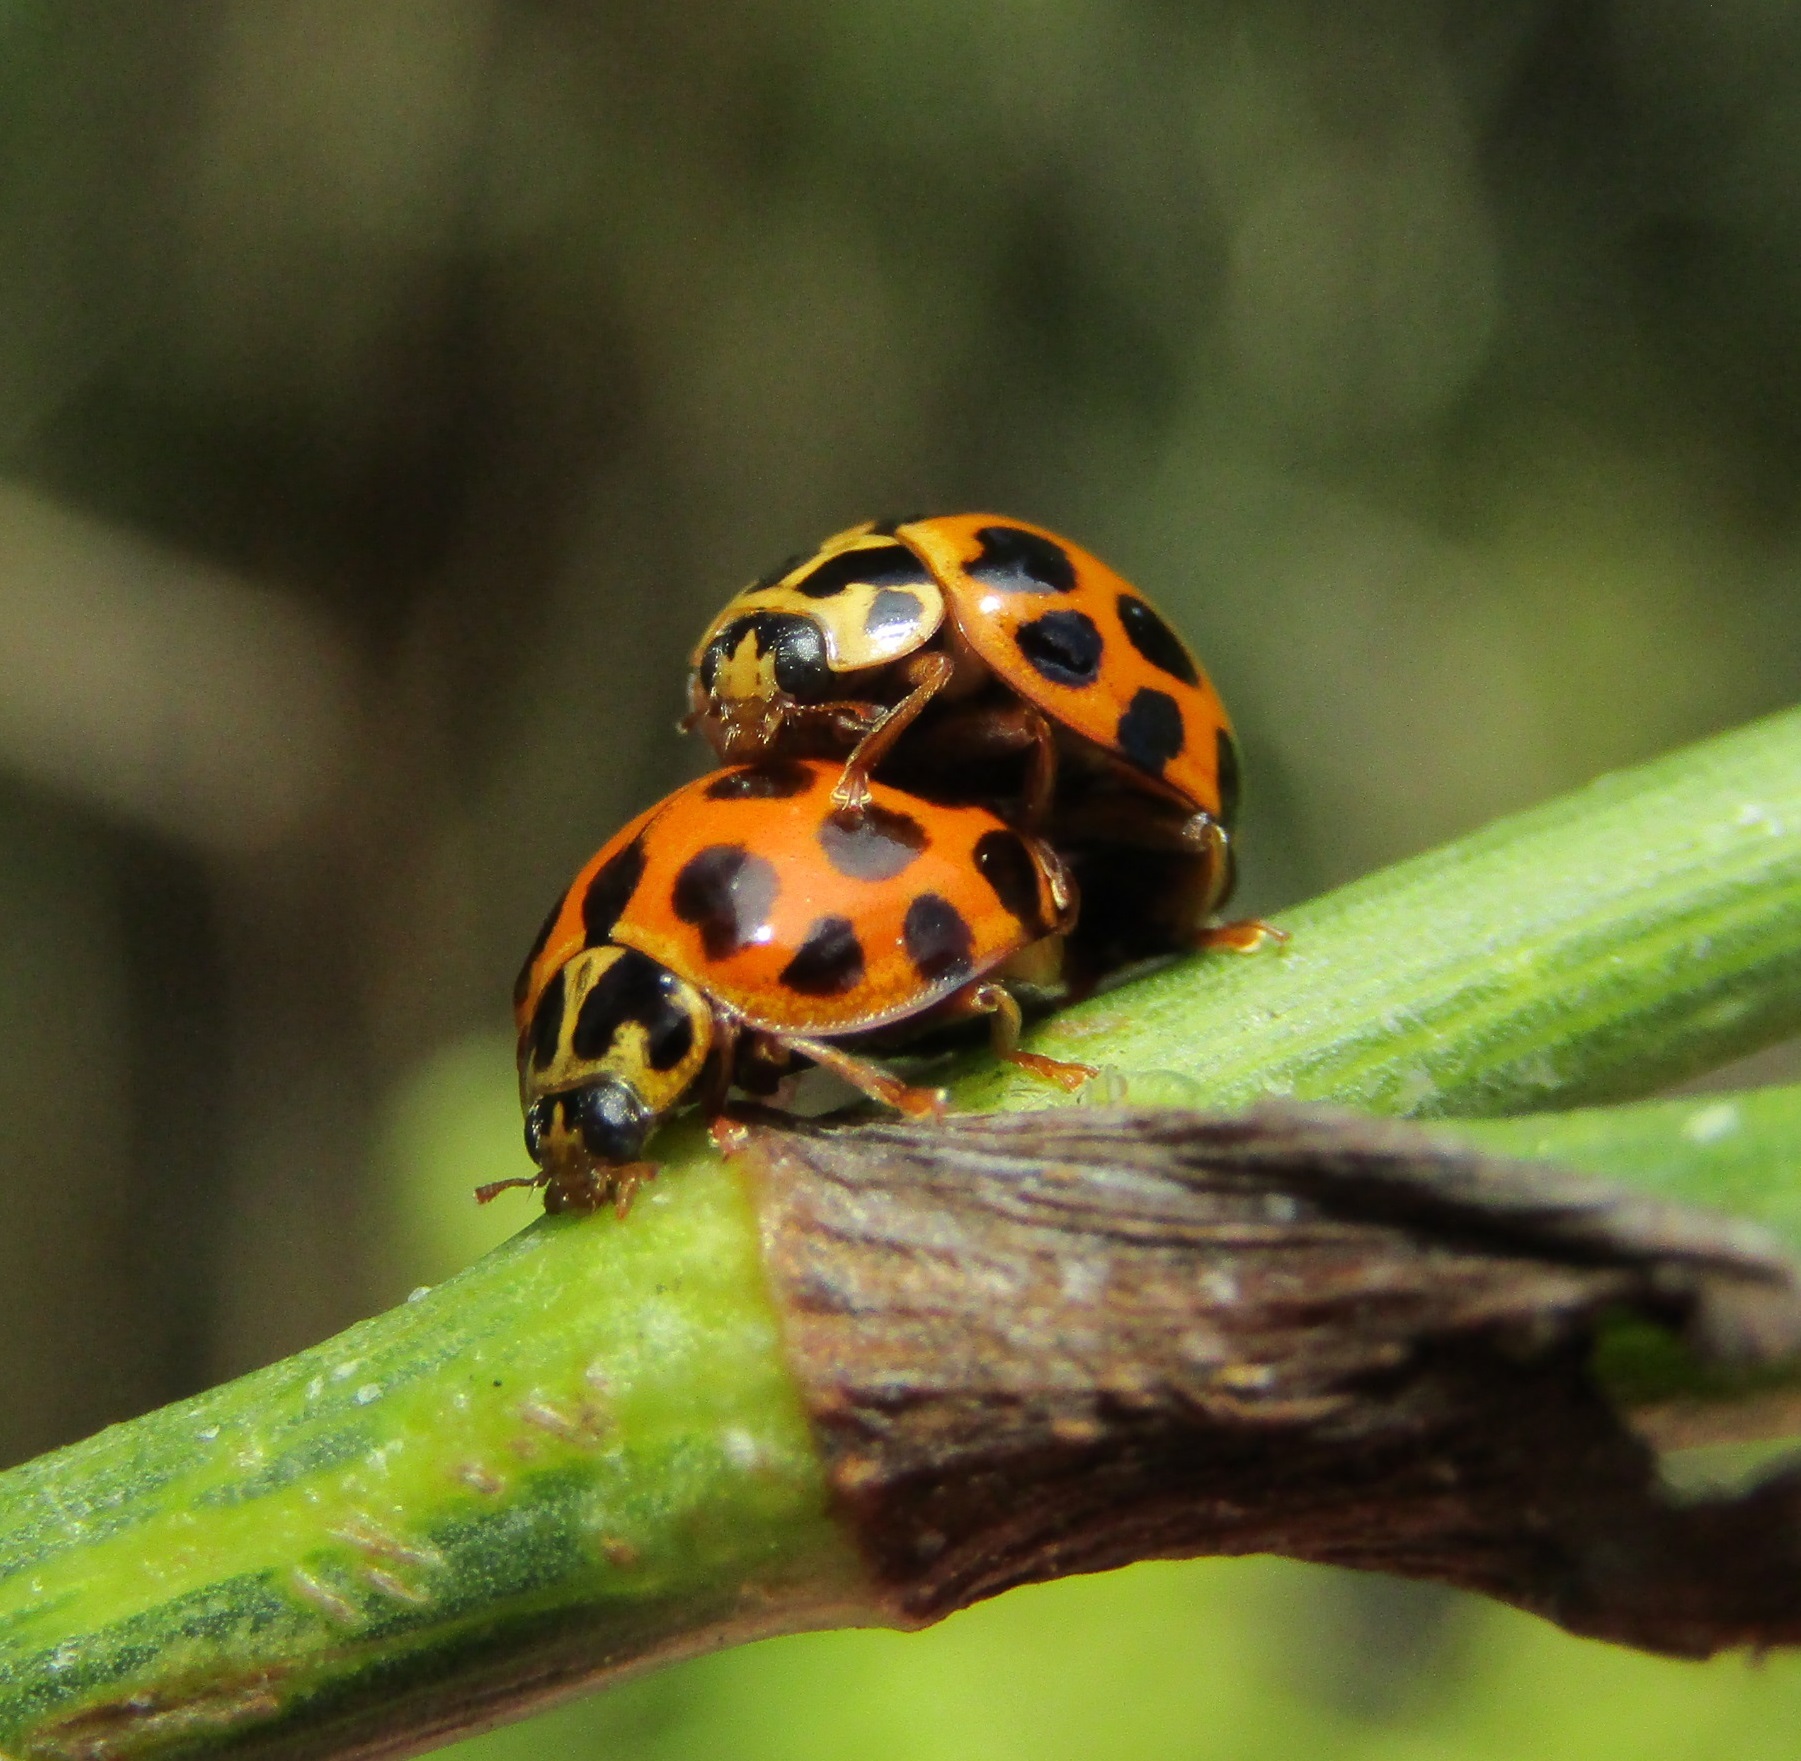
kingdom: Animalia
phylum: Arthropoda
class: Insecta
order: Coleoptera
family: Coccinellidae
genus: Harmonia
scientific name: Harmonia conformis
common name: Common spotted ladybird beetle
